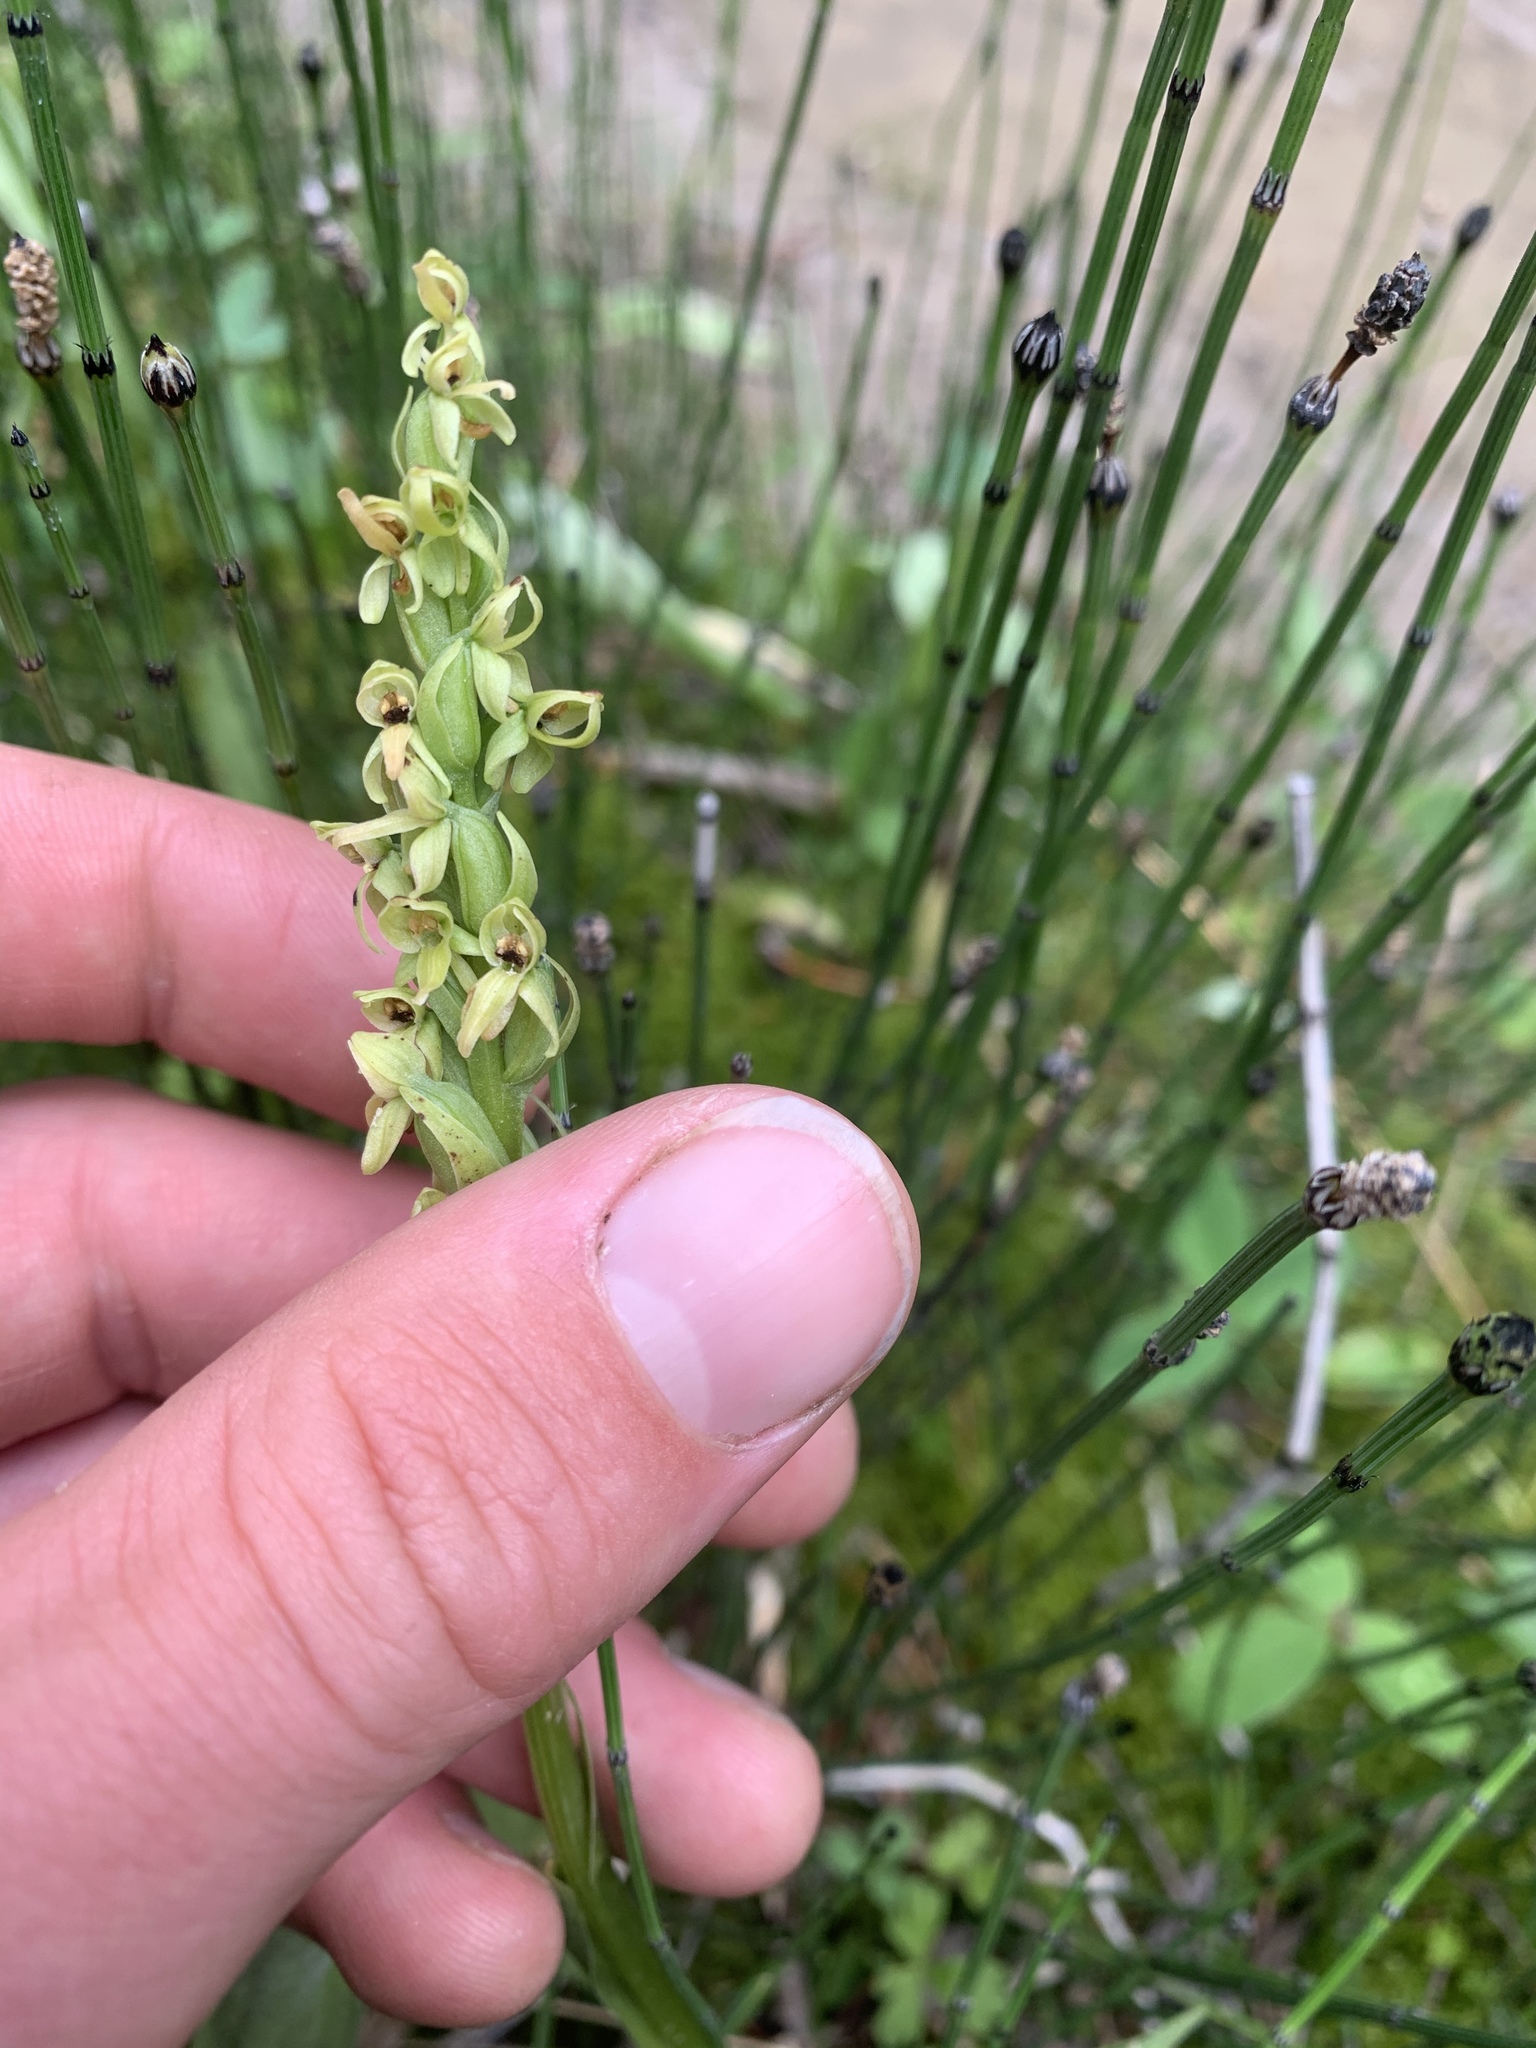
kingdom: Plantae
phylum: Tracheophyta
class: Liliopsida
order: Asparagales
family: Orchidaceae
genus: Platanthera
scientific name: Platanthera huronensis
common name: Fragrant green orchid
